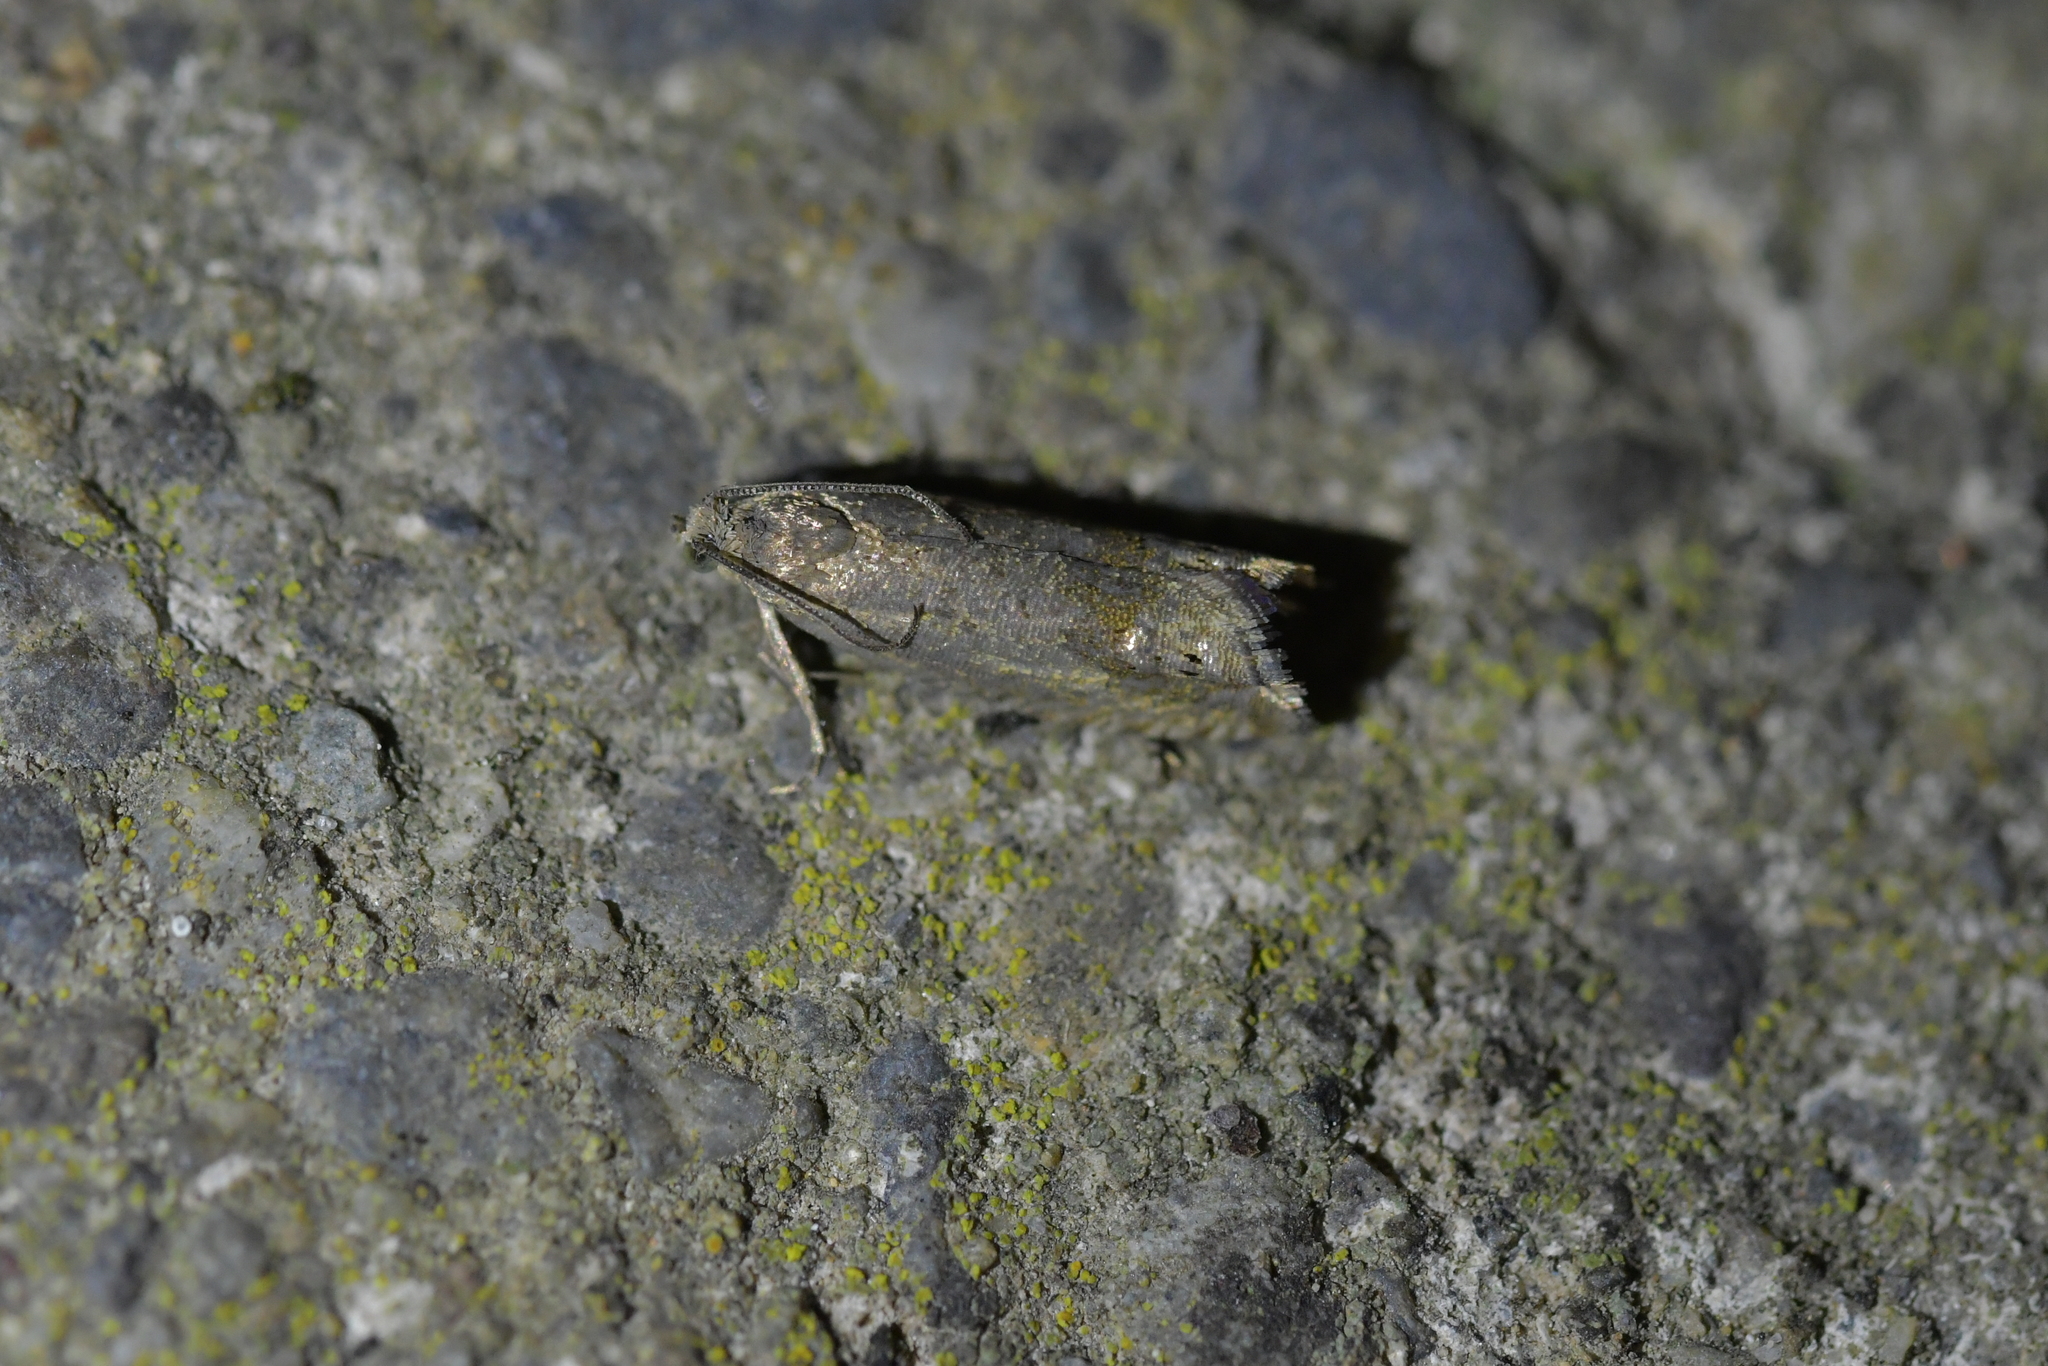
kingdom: Animalia
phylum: Arthropoda
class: Insecta
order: Lepidoptera
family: Tortricidae
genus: Cydia
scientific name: Cydia succedana
